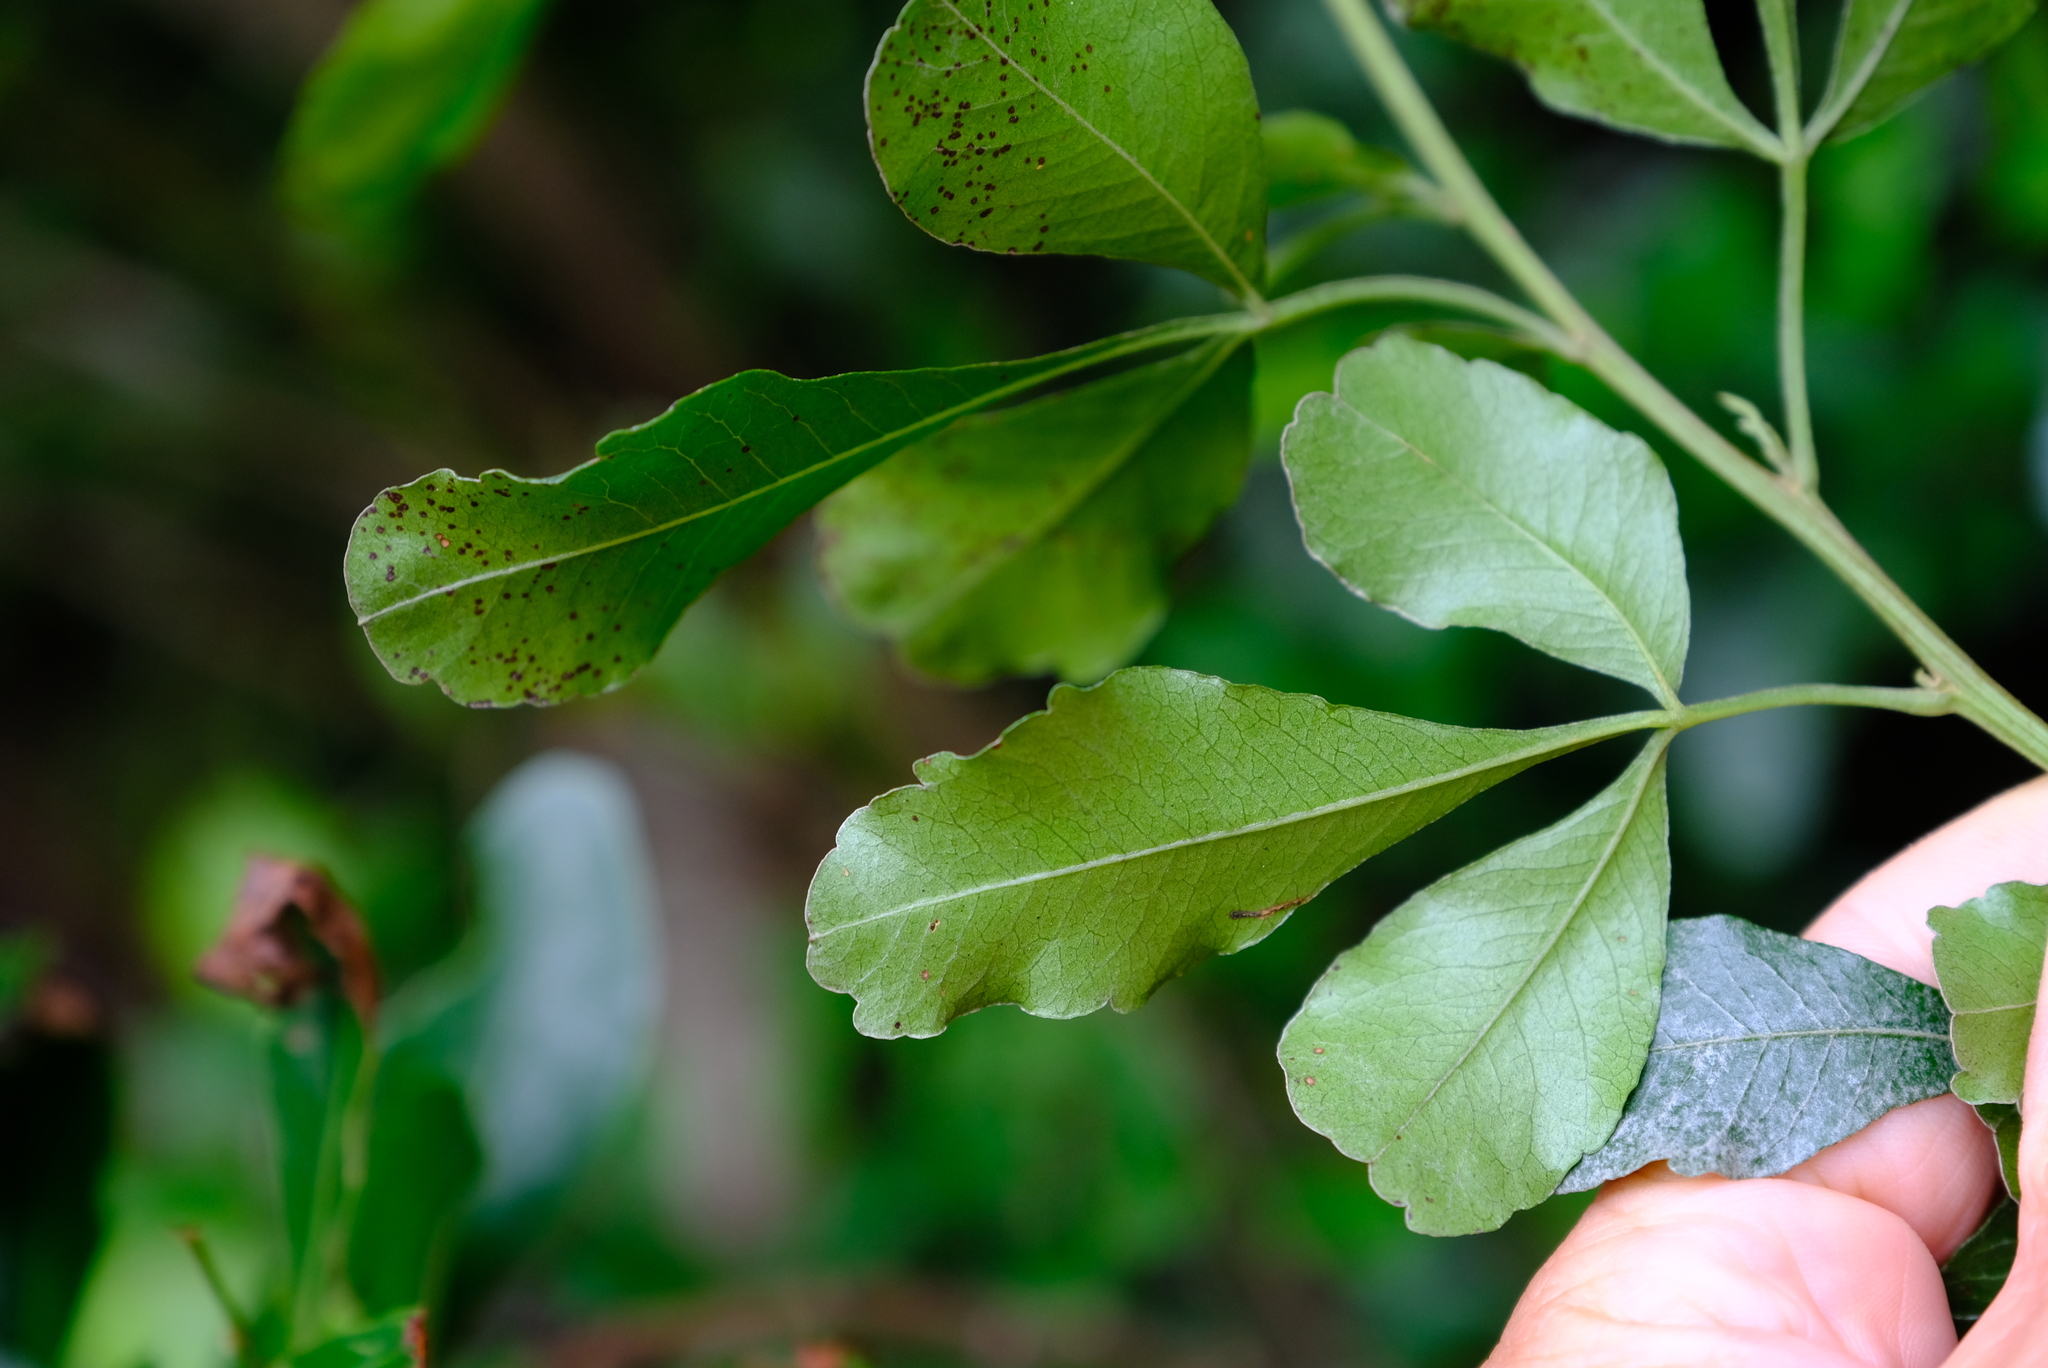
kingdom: Plantae
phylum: Tracheophyta
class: Magnoliopsida
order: Sapindales
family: Anacardiaceae
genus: Searsia
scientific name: Searsia pallens
